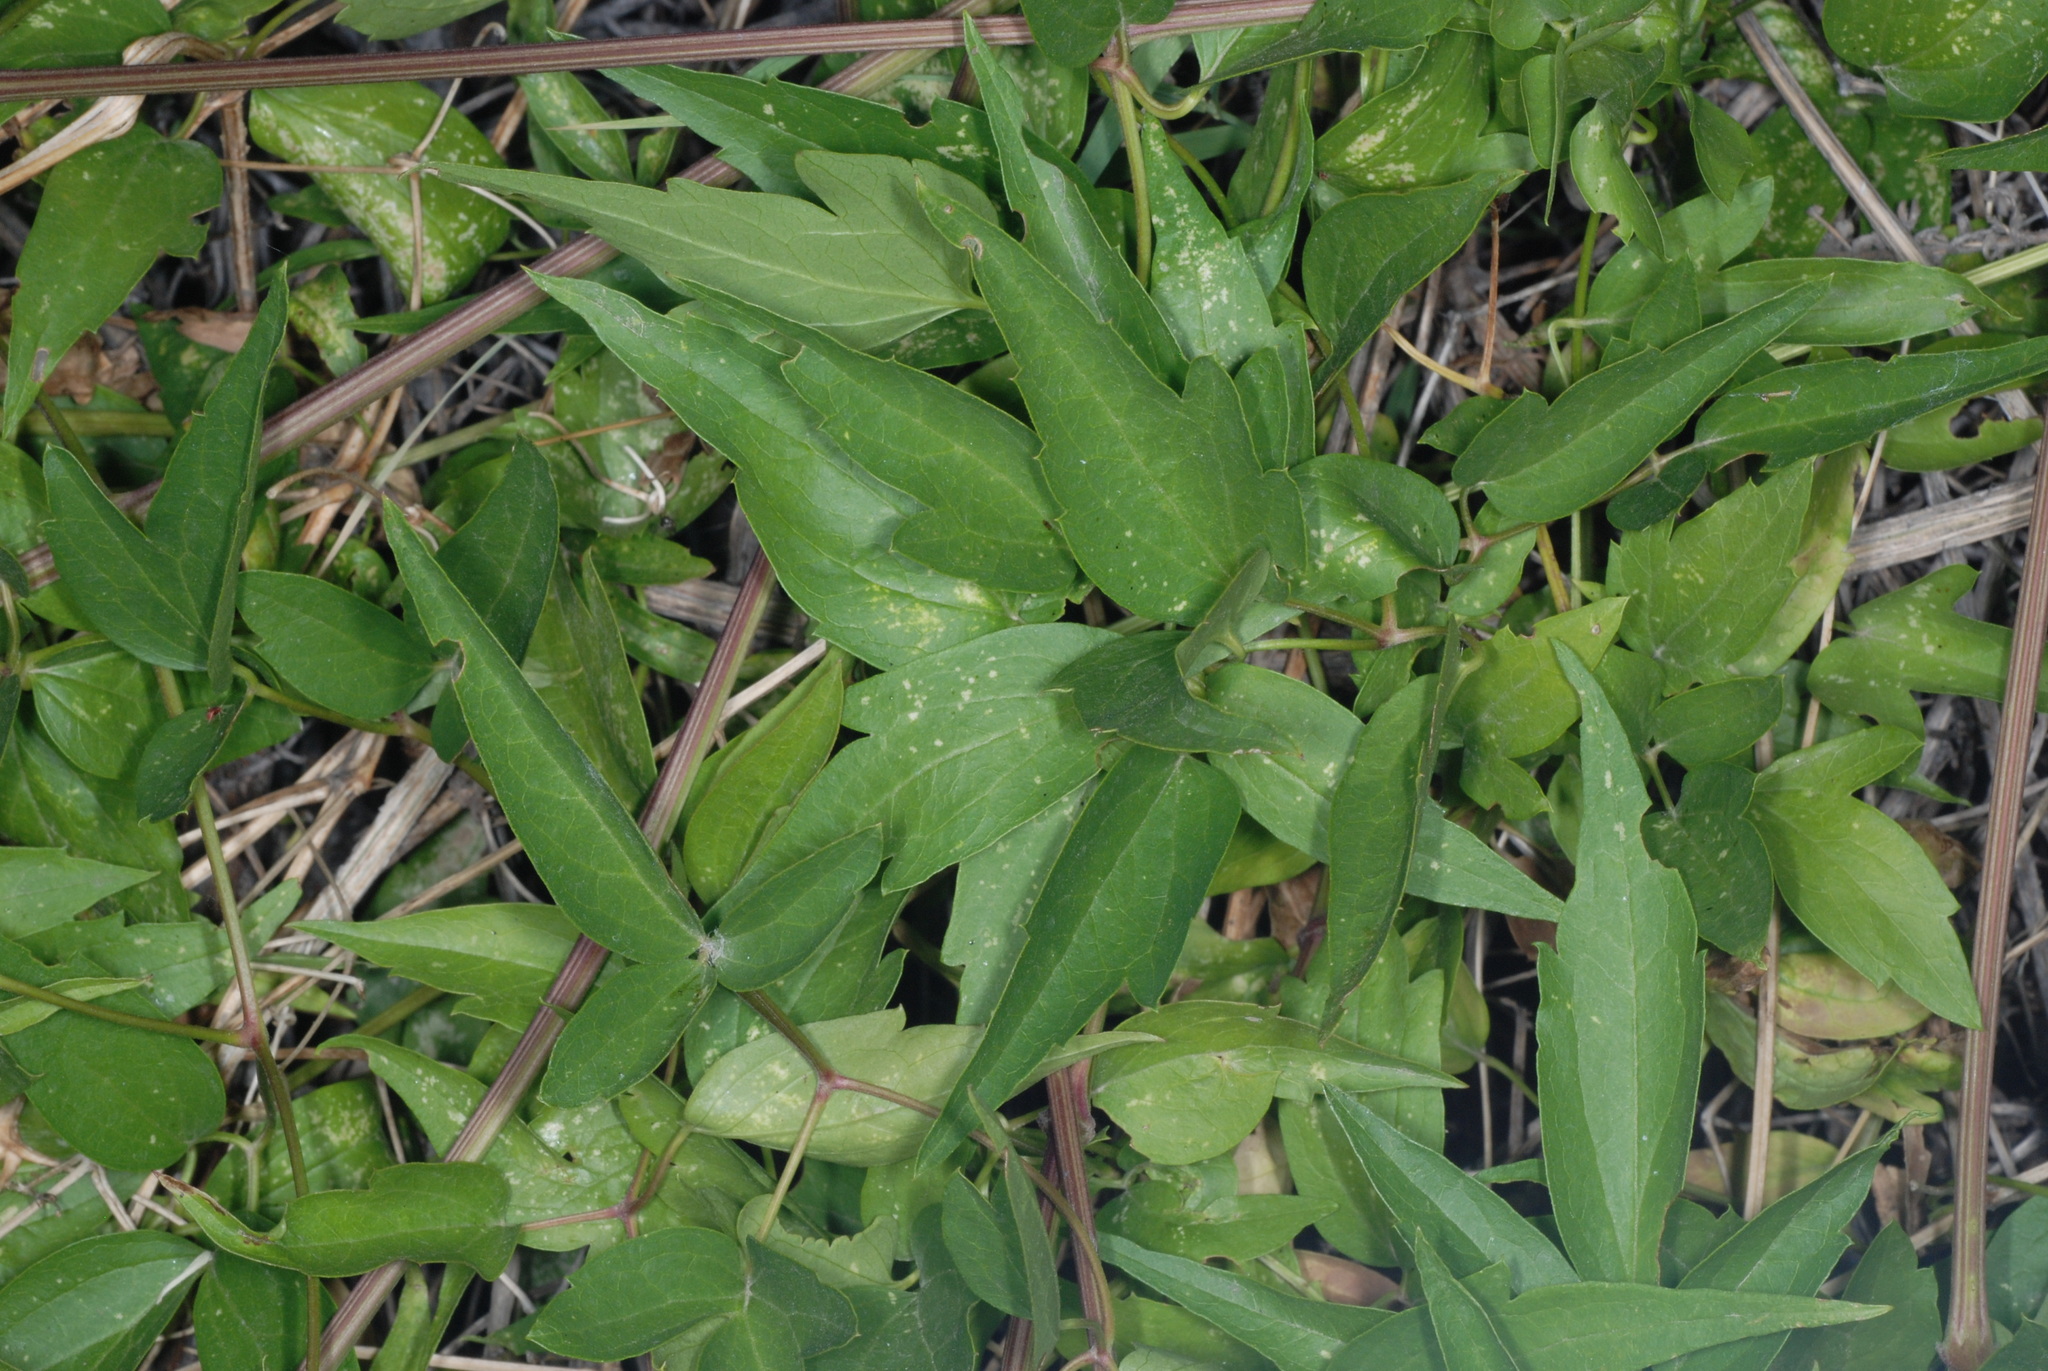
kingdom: Plantae
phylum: Tracheophyta
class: Magnoliopsida
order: Ranunculales
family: Ranunculaceae
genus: Clematis
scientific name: Clematis ligusticifolia
